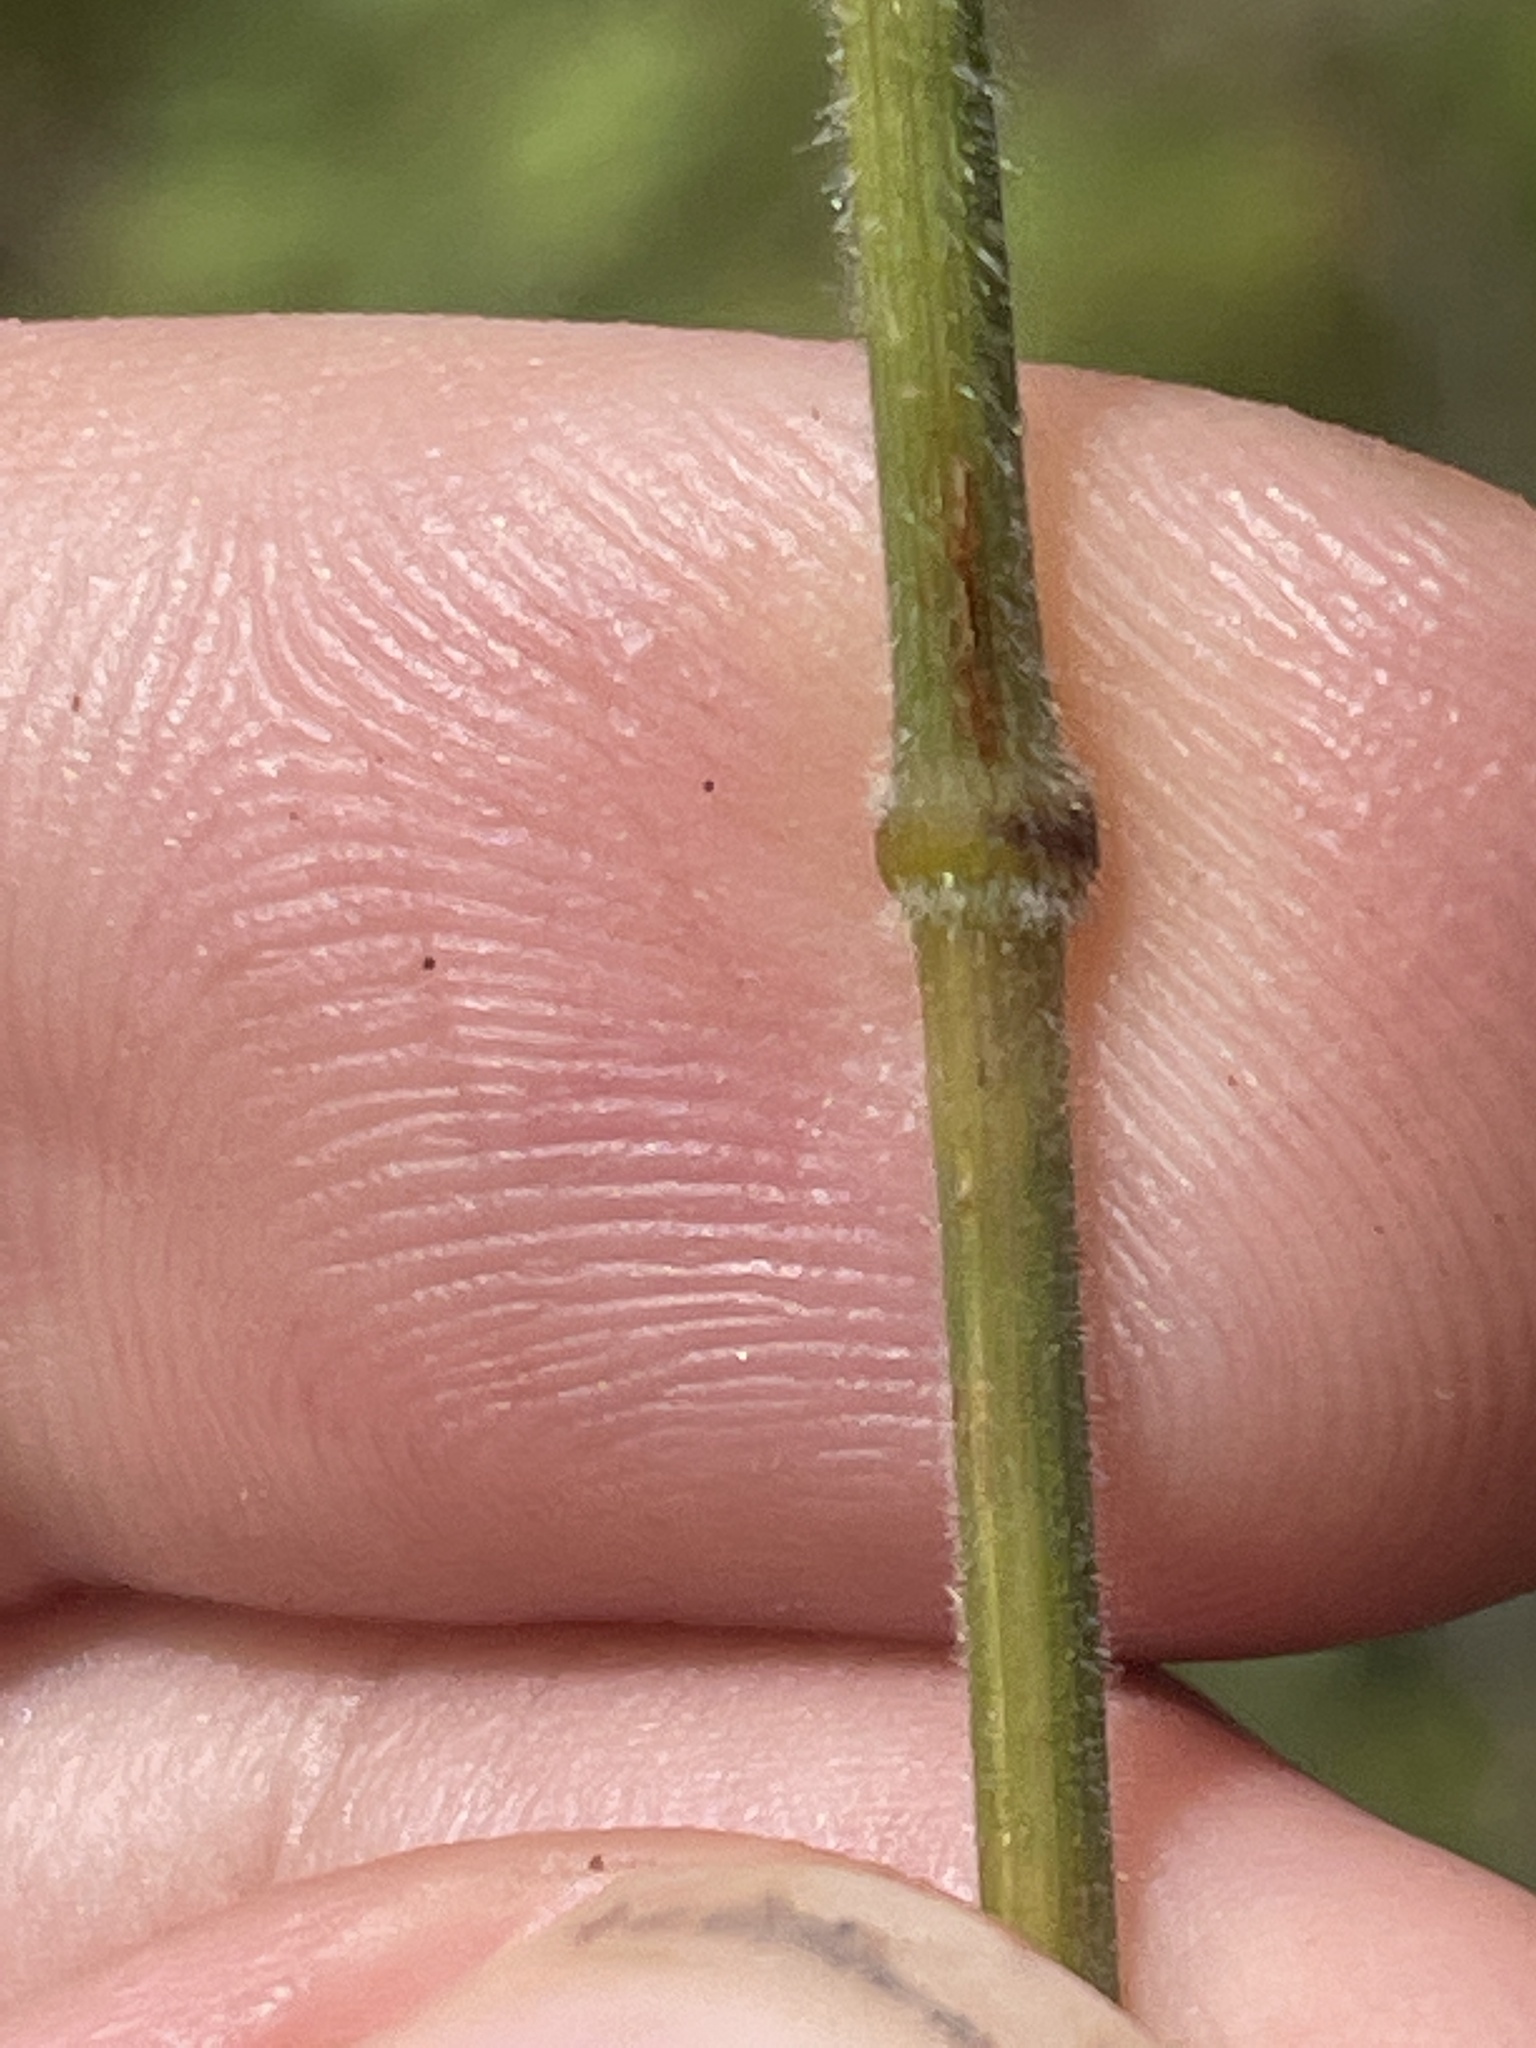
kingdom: Plantae
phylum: Tracheophyta
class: Liliopsida
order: Poales
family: Poaceae
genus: Bromus
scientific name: Bromus pubescens
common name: Hairy wood brome grass
